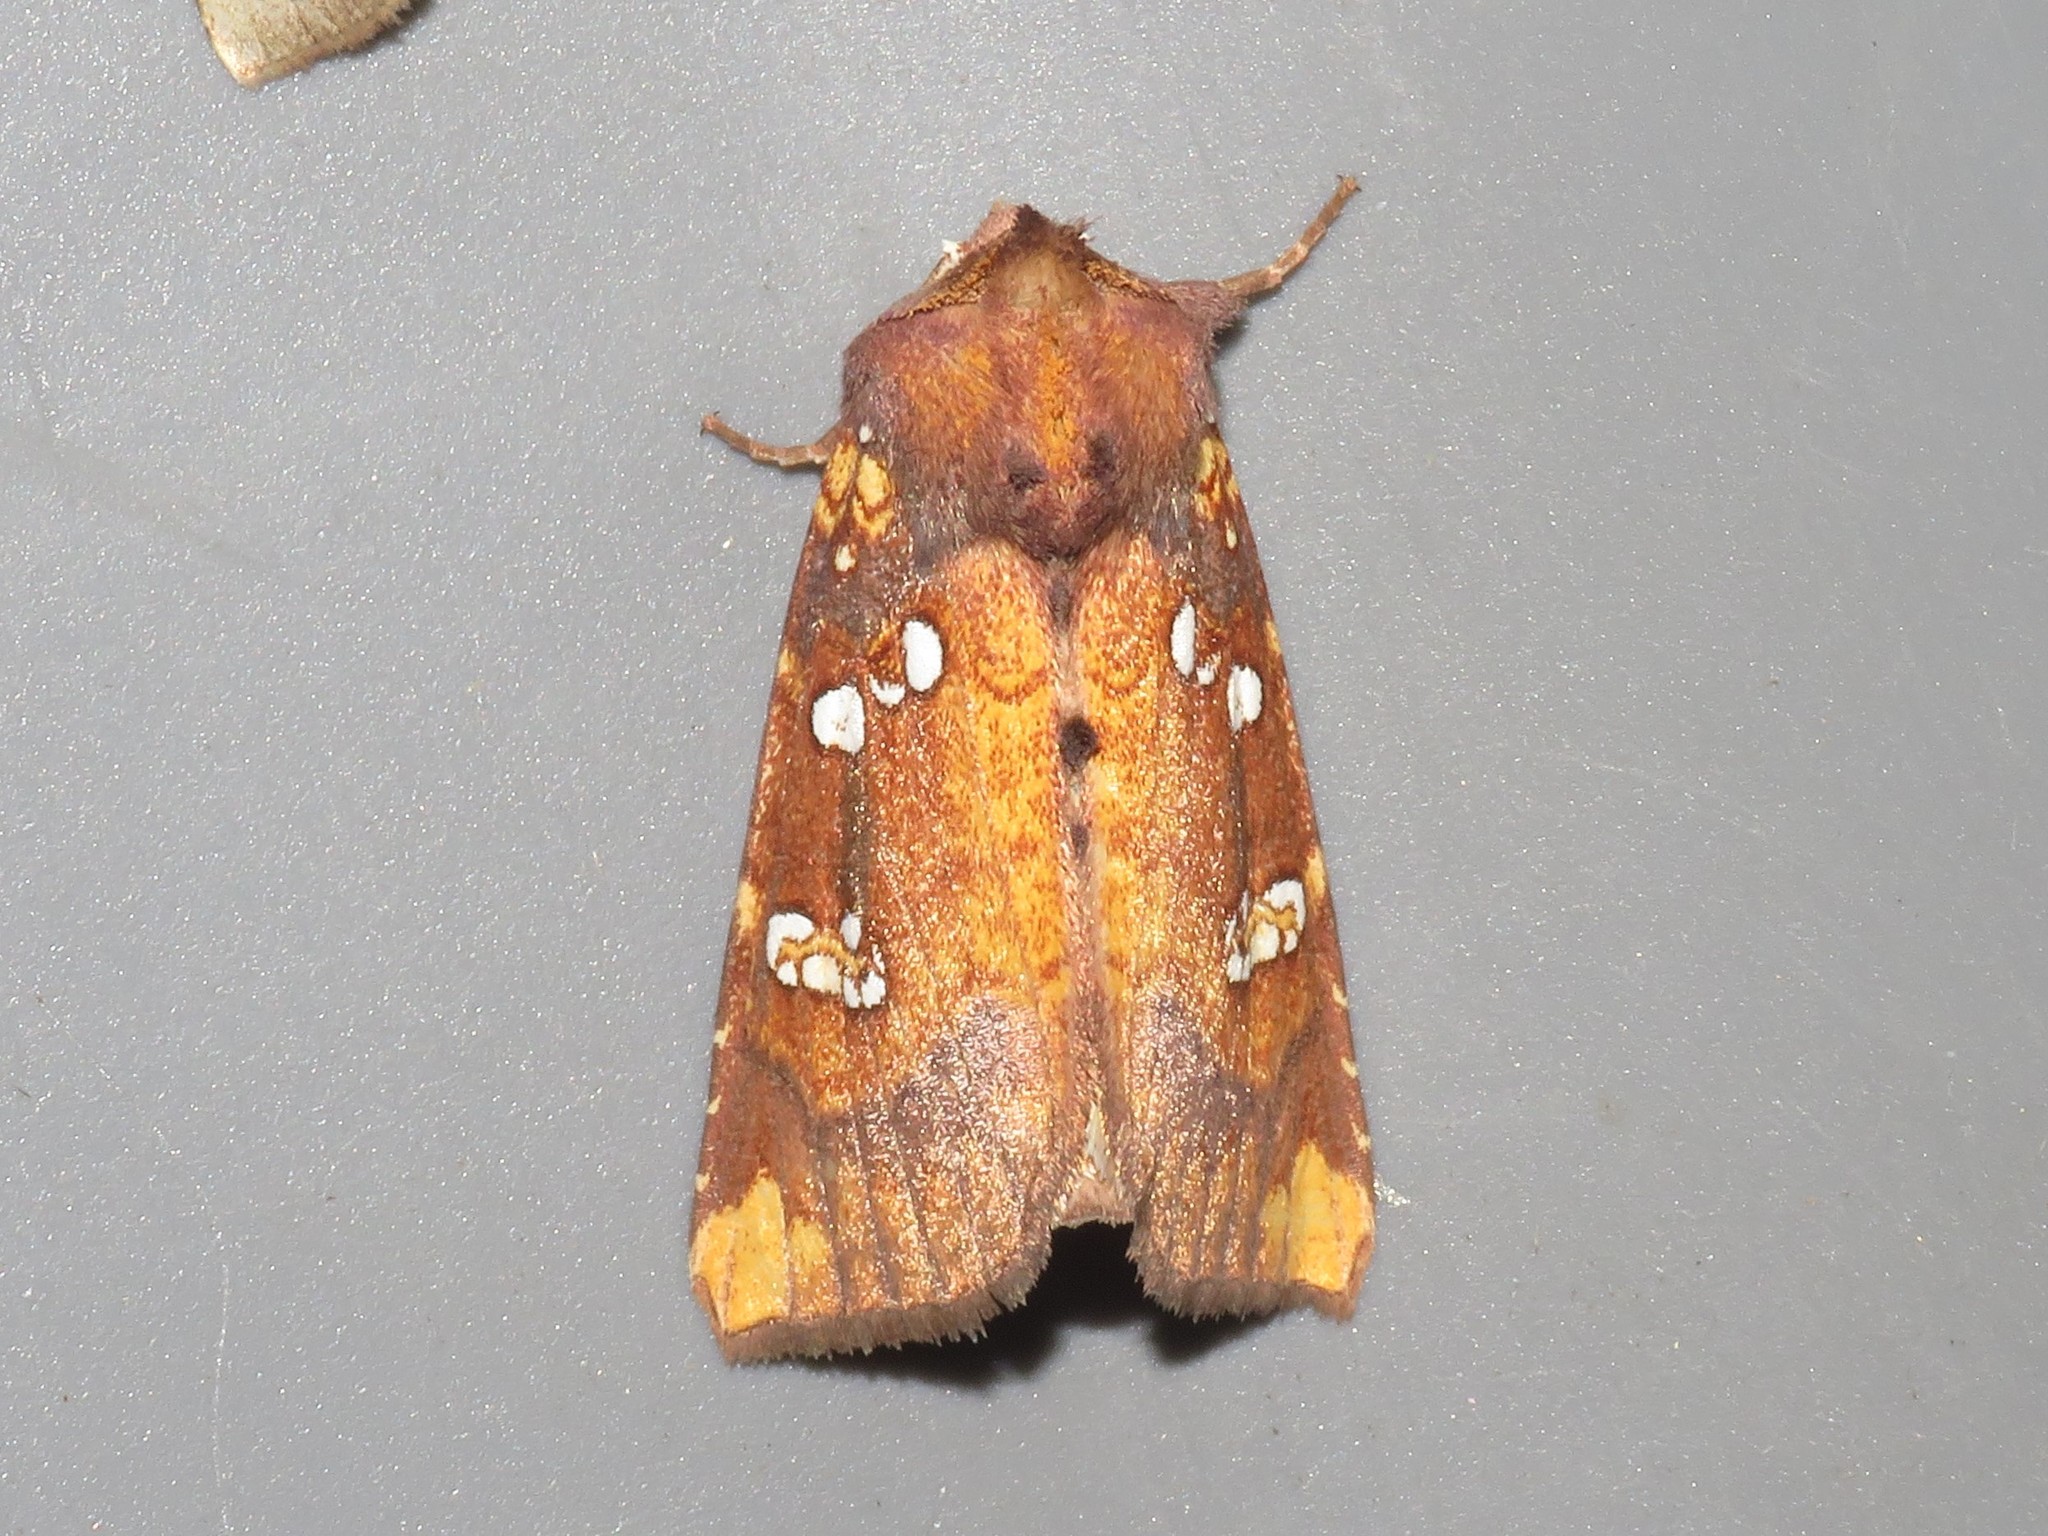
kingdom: Animalia
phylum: Arthropoda
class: Insecta
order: Lepidoptera
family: Noctuidae
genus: Papaipema
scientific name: Papaipema baptisiae
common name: Wild indigo borer moth
